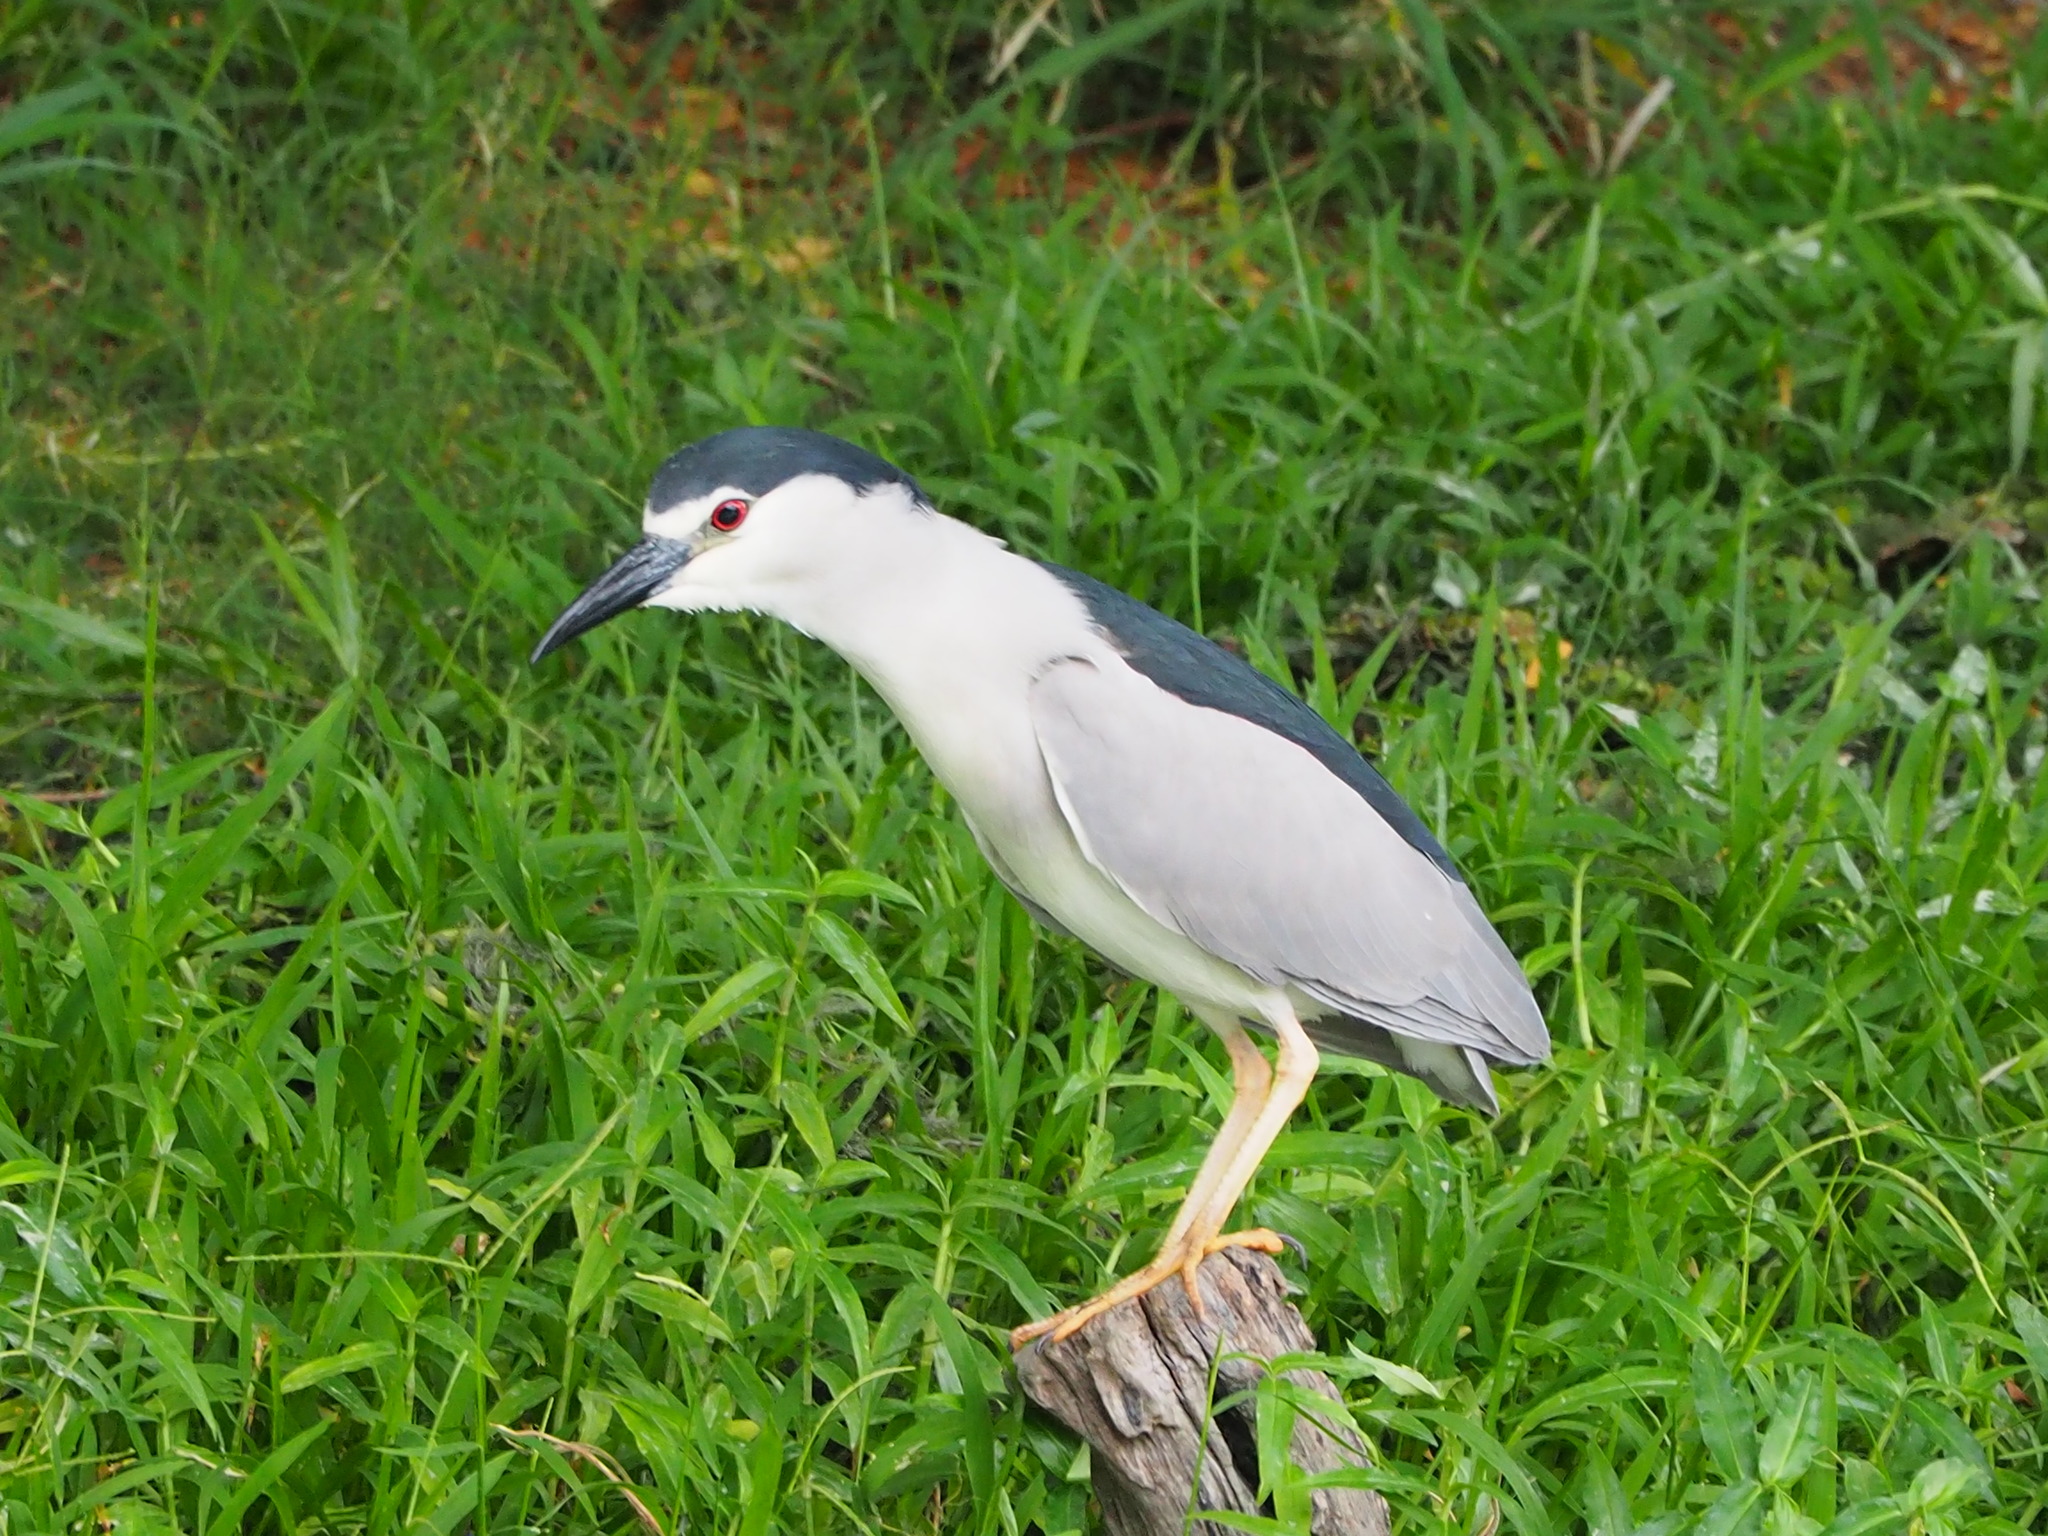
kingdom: Animalia
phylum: Chordata
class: Aves
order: Pelecaniformes
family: Ardeidae
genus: Nycticorax
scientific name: Nycticorax nycticorax
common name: Black-crowned night heron
